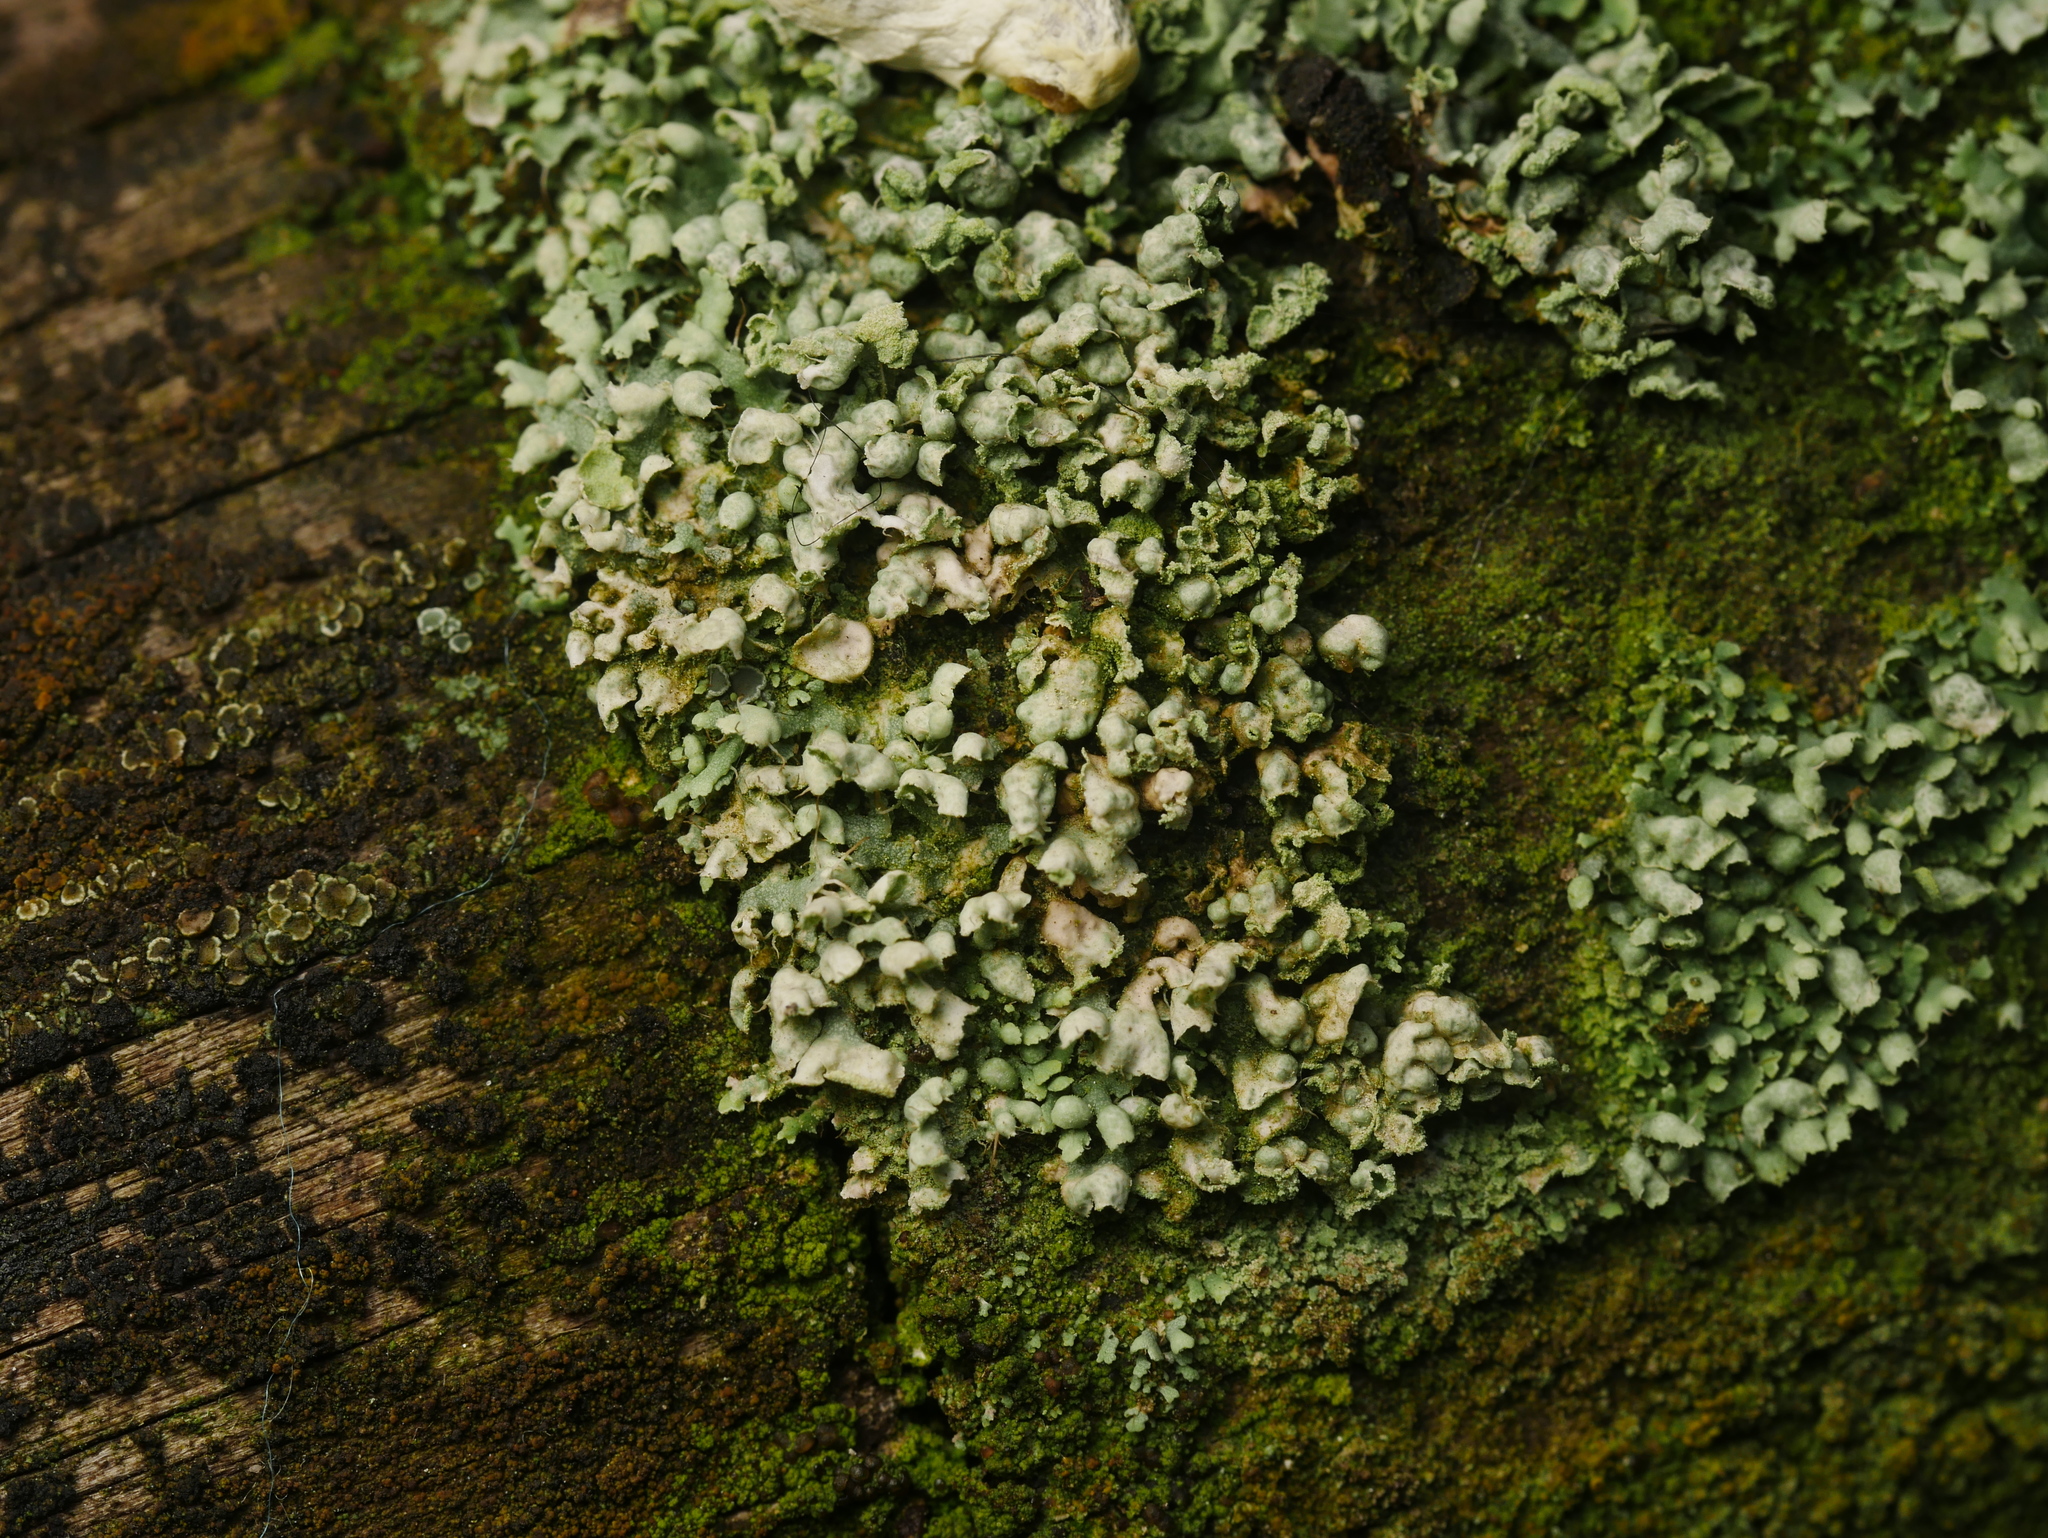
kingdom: Fungi
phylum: Ascomycota
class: Lecanoromycetes
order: Caliciales
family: Physciaceae
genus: Physcia
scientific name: Physcia adscendens
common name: Hooded rosette lichen
